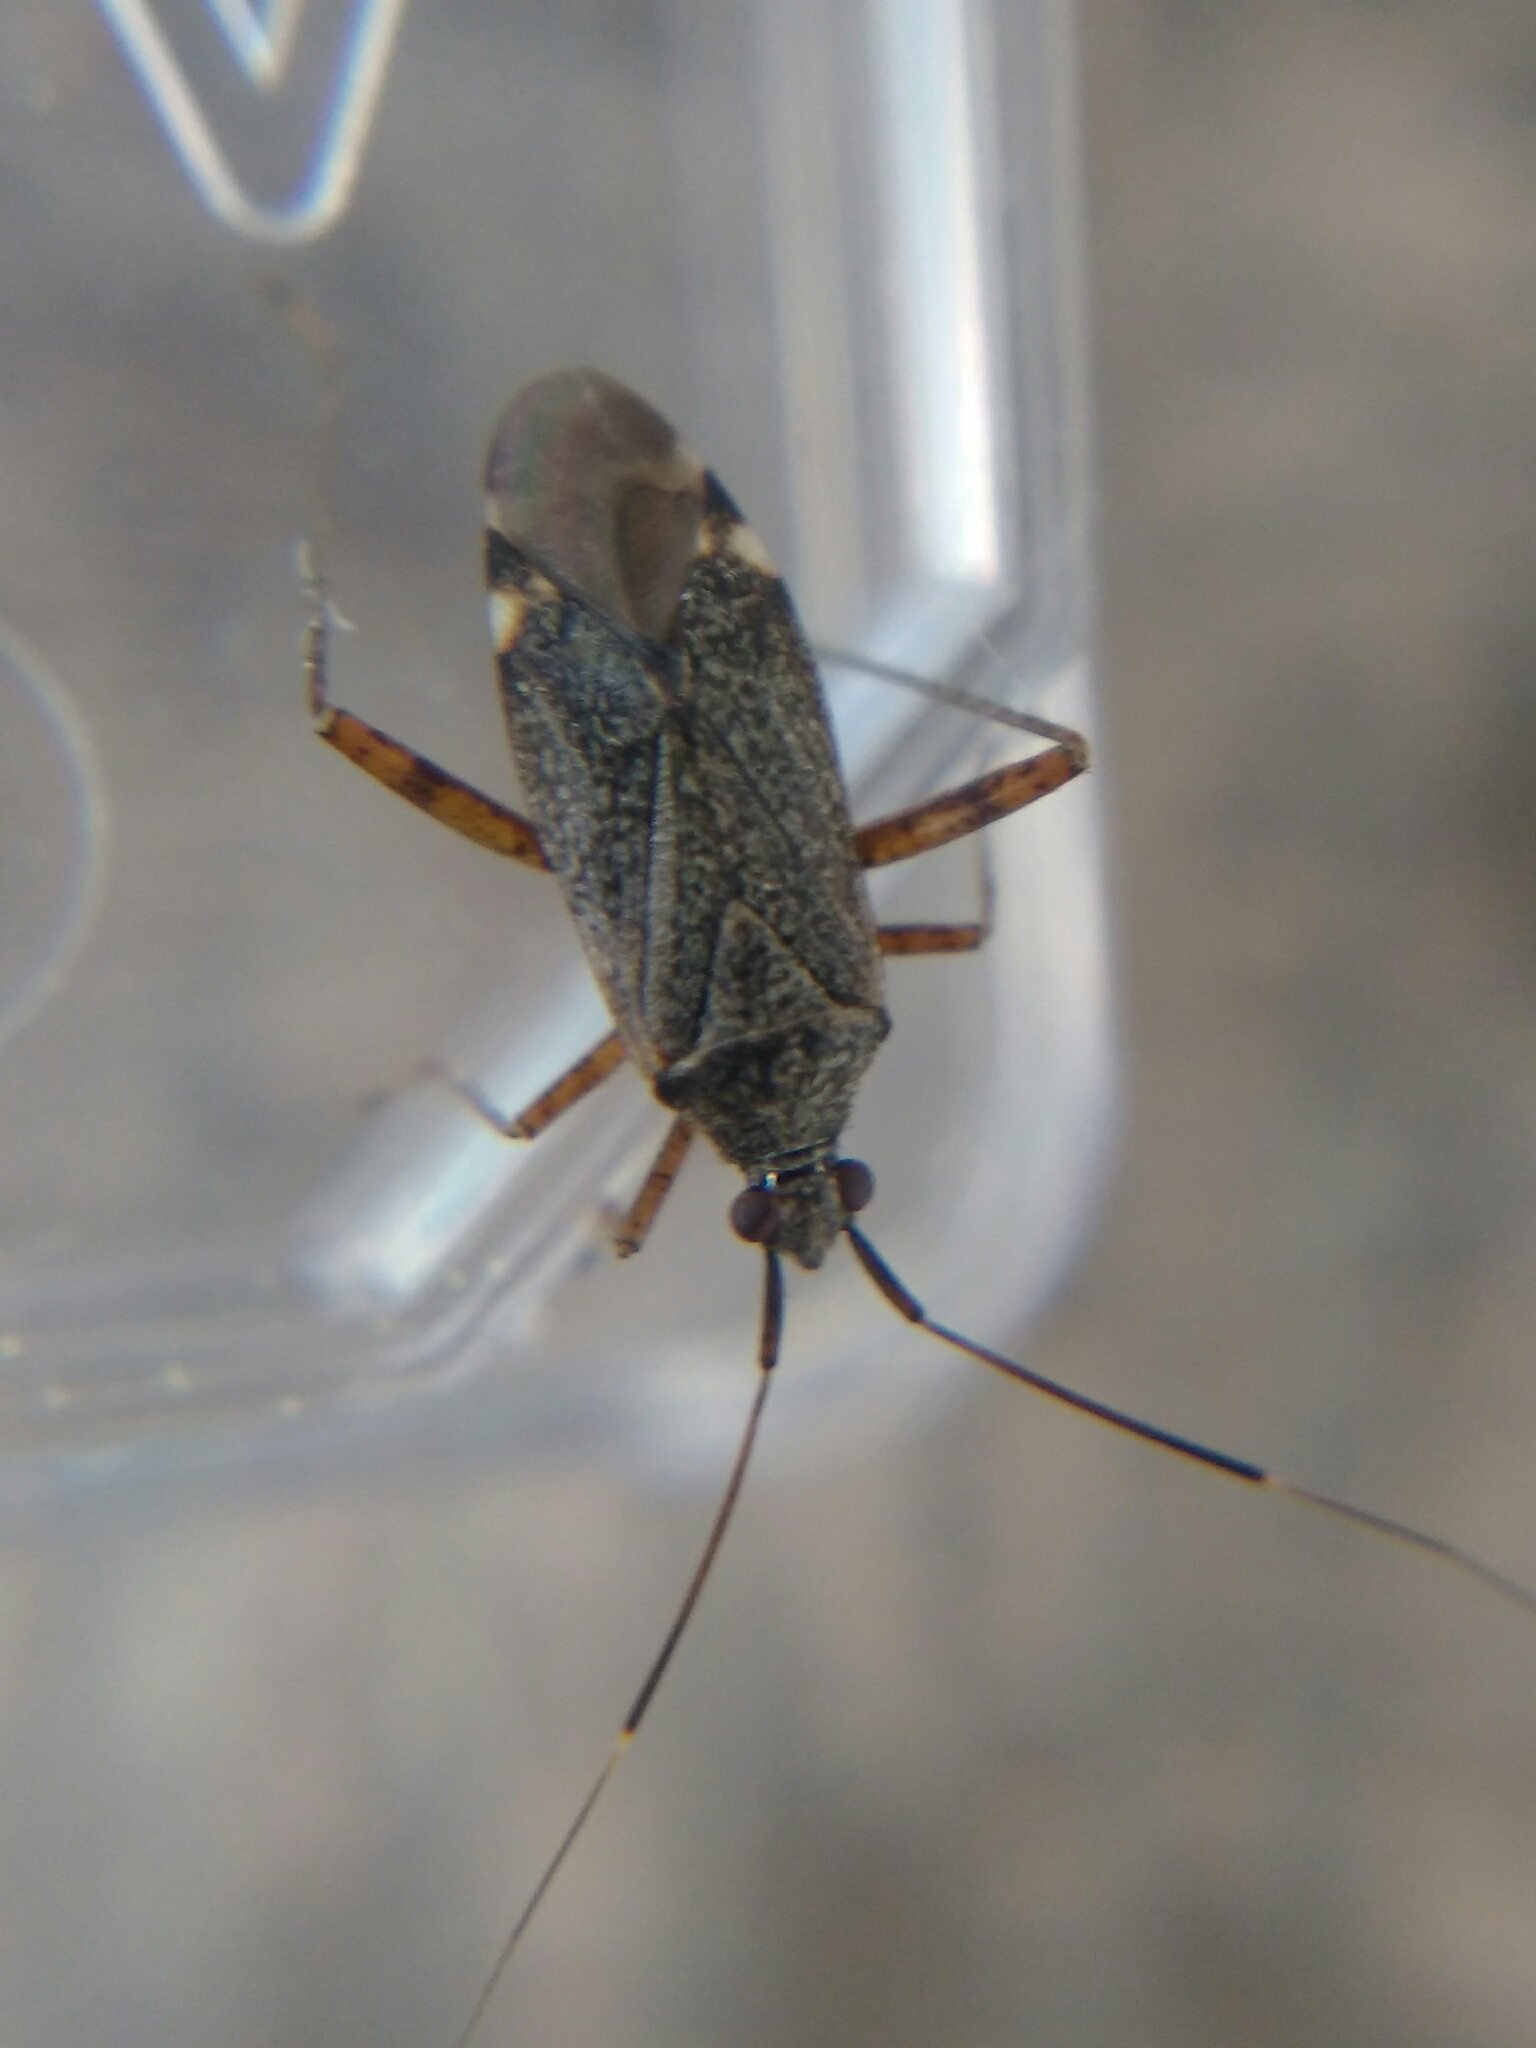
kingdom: Animalia
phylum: Arthropoda
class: Insecta
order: Hemiptera
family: Miridae
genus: Closterotomus
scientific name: Closterotomus fulvomaculatus
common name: Spotted plant bug
